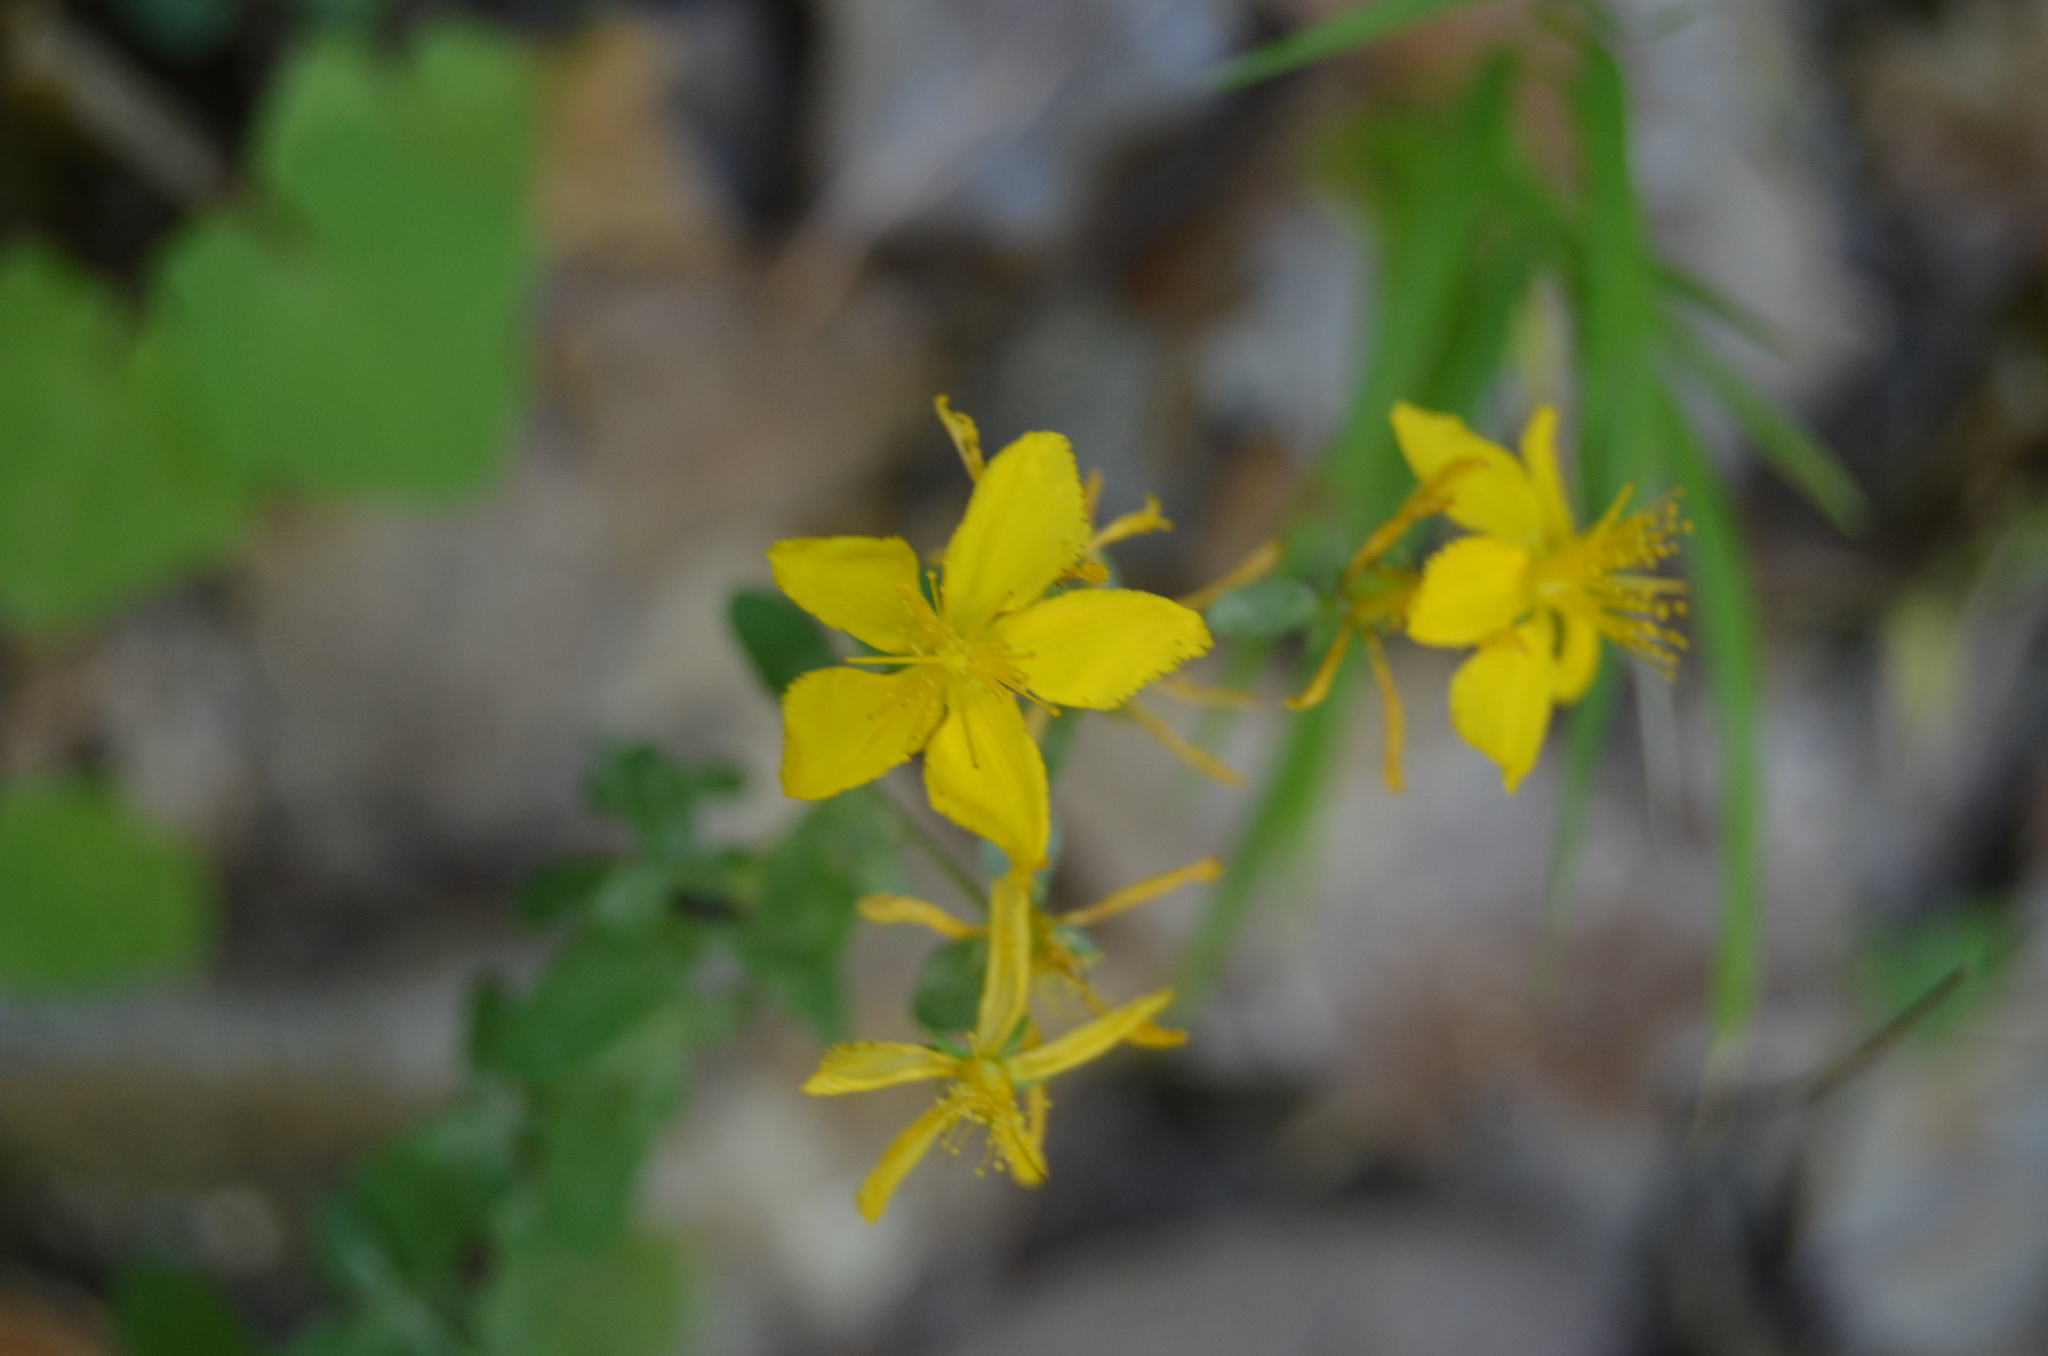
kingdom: Plantae
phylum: Tracheophyta
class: Magnoliopsida
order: Malpighiales
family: Hypericaceae
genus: Hypericum
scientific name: Hypericum perforatum
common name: Common st. johnswort
